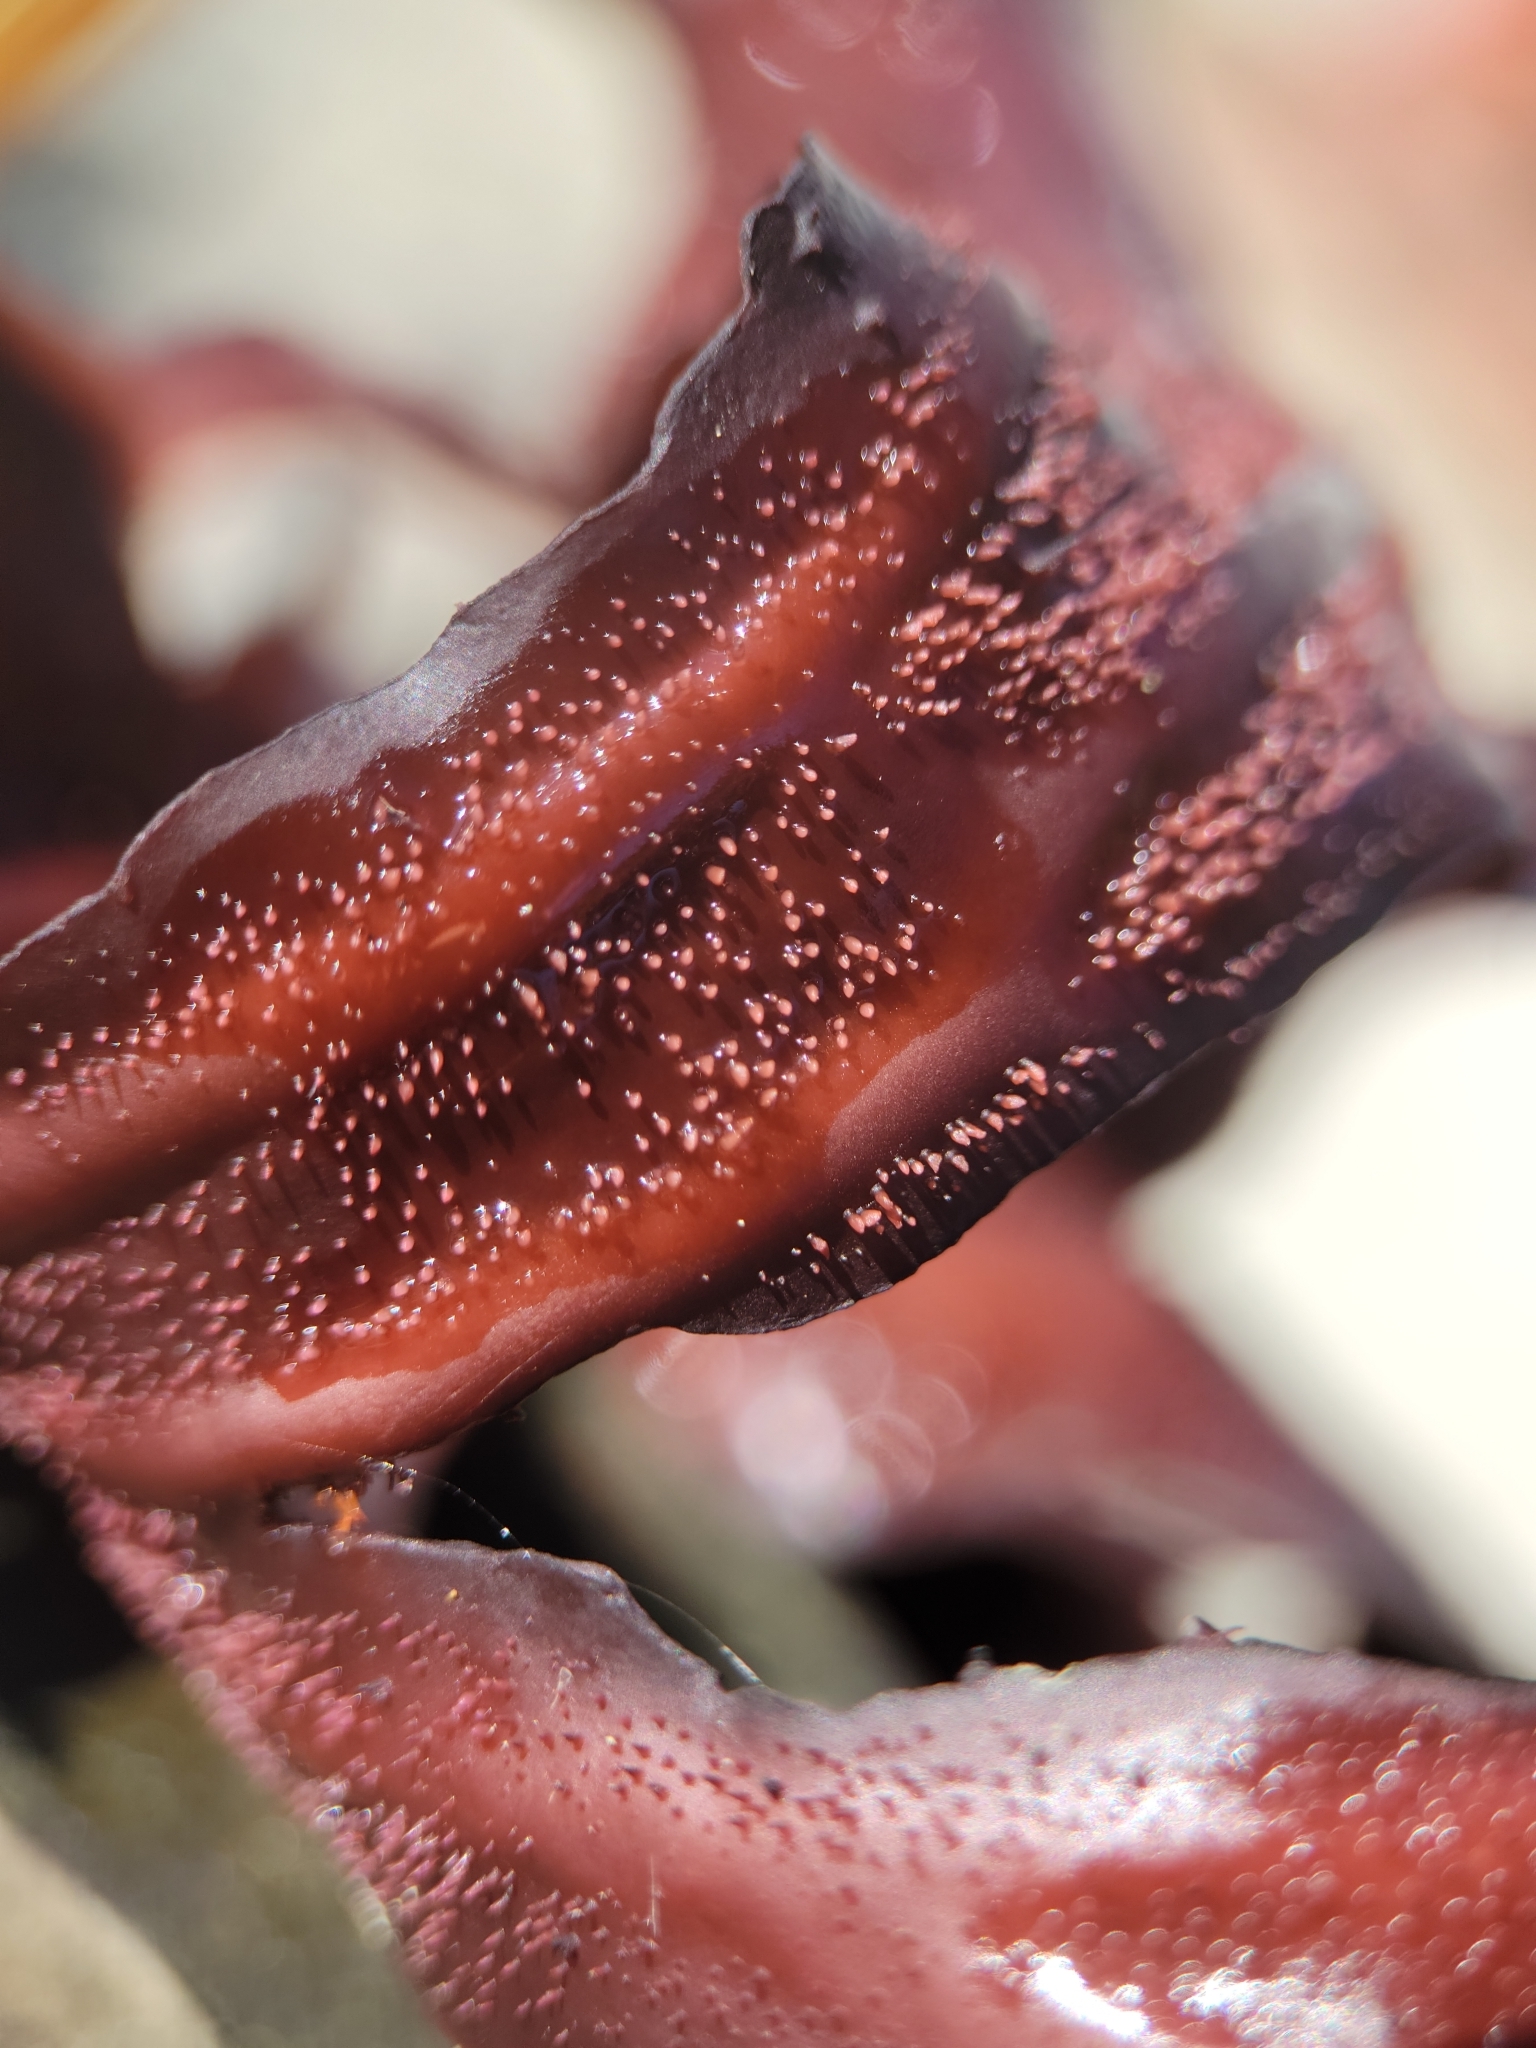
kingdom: Plantae
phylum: Rhodophyta
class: Florideophyceae
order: Gigartinales
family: Kallymeniaceae
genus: Erythrophyllum
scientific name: Erythrophyllum delesserioides
